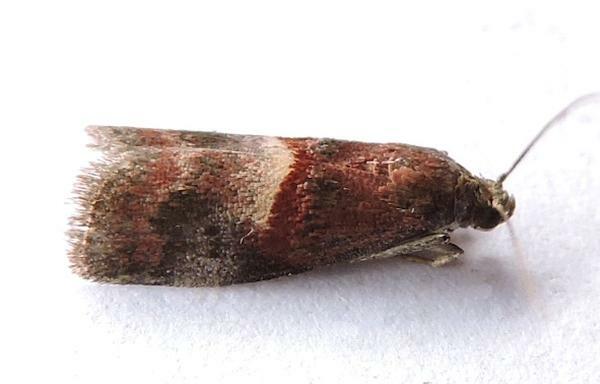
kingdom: Animalia
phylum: Arthropoda
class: Insecta
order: Lepidoptera
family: Pyralidae
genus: Acrobasis
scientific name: Acrobasis exsulella
